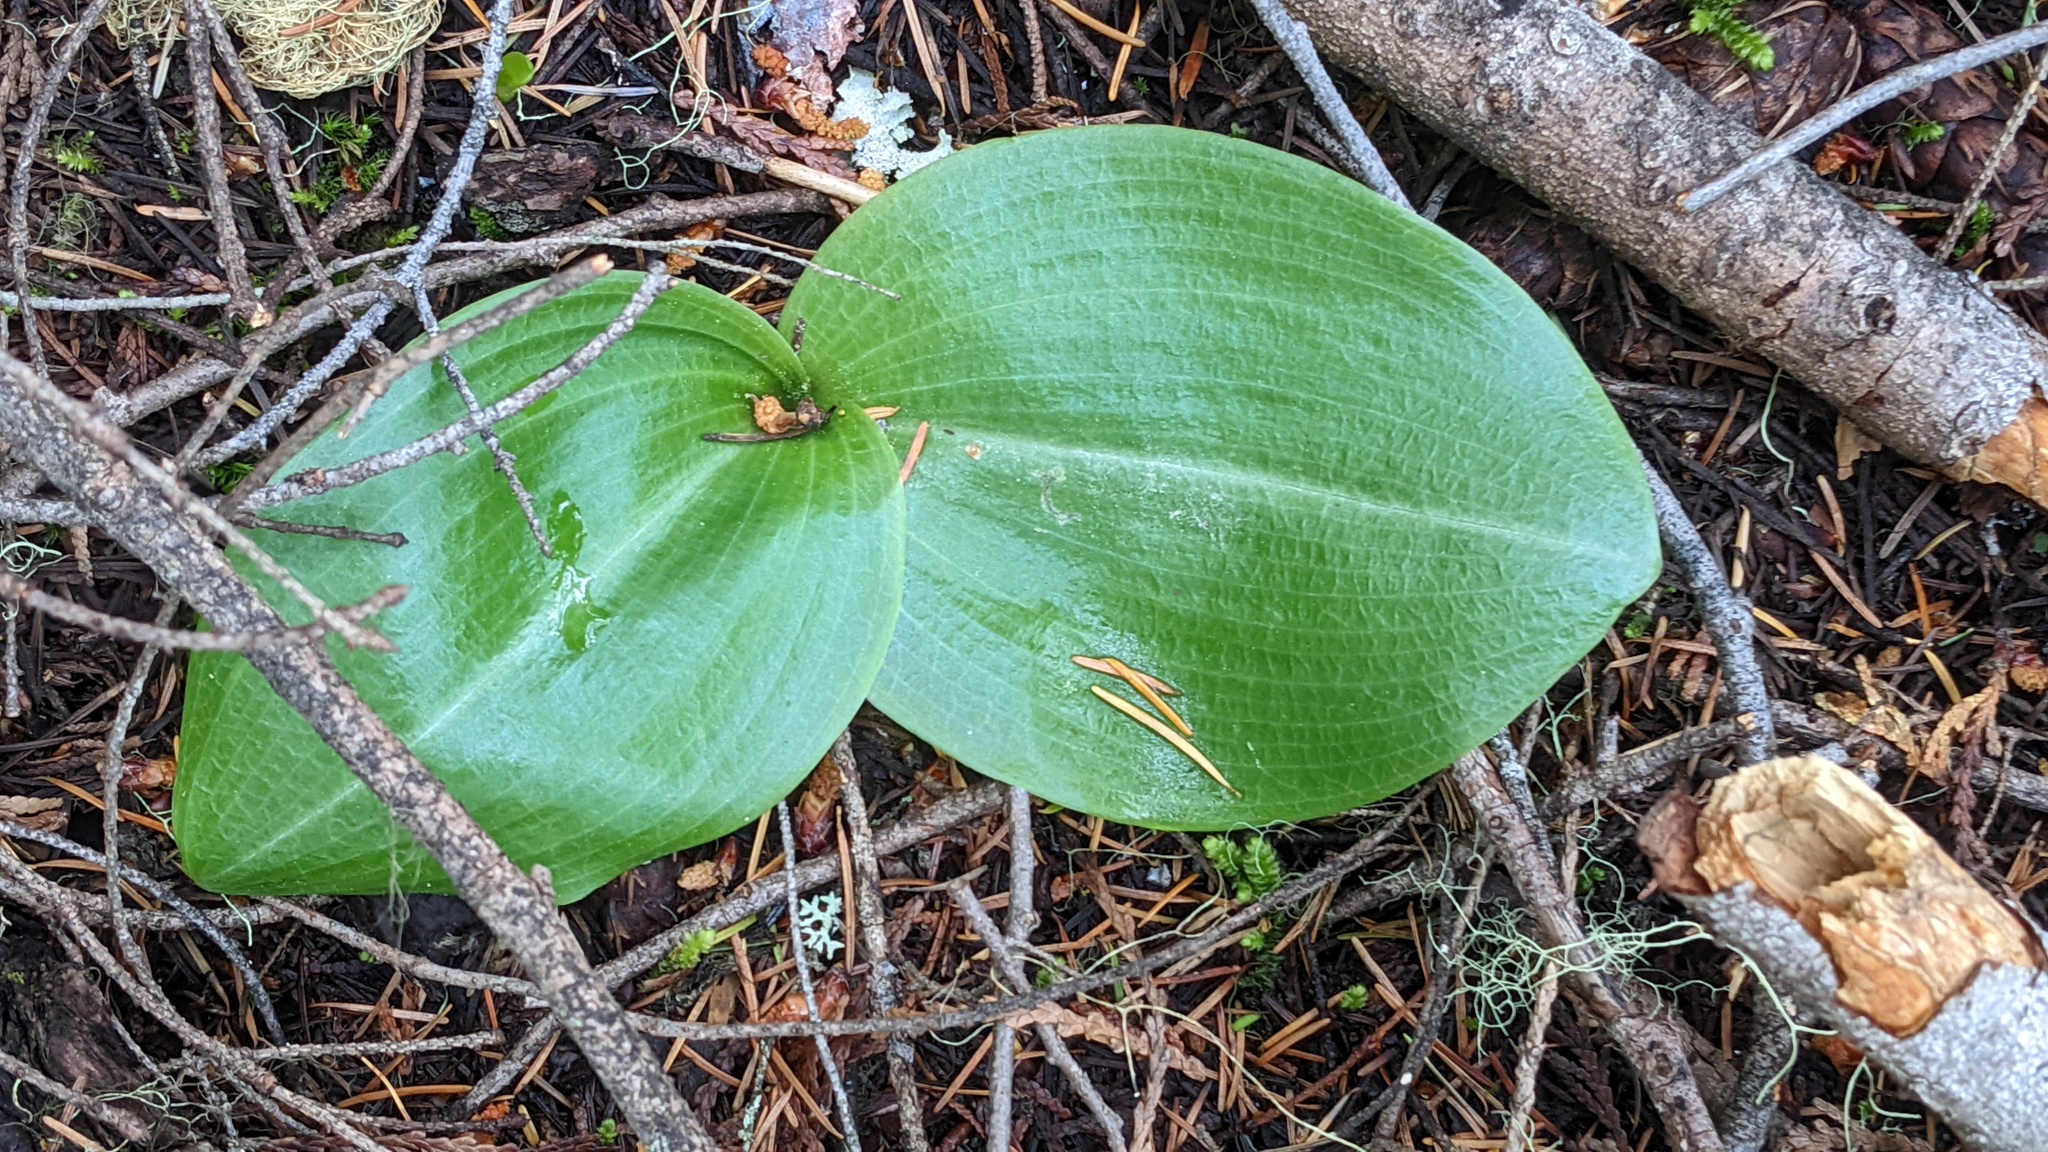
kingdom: Plantae
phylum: Tracheophyta
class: Liliopsida
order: Asparagales
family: Orchidaceae
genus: Platanthera
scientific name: Platanthera orbiculata
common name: Large round-leaved orchid
